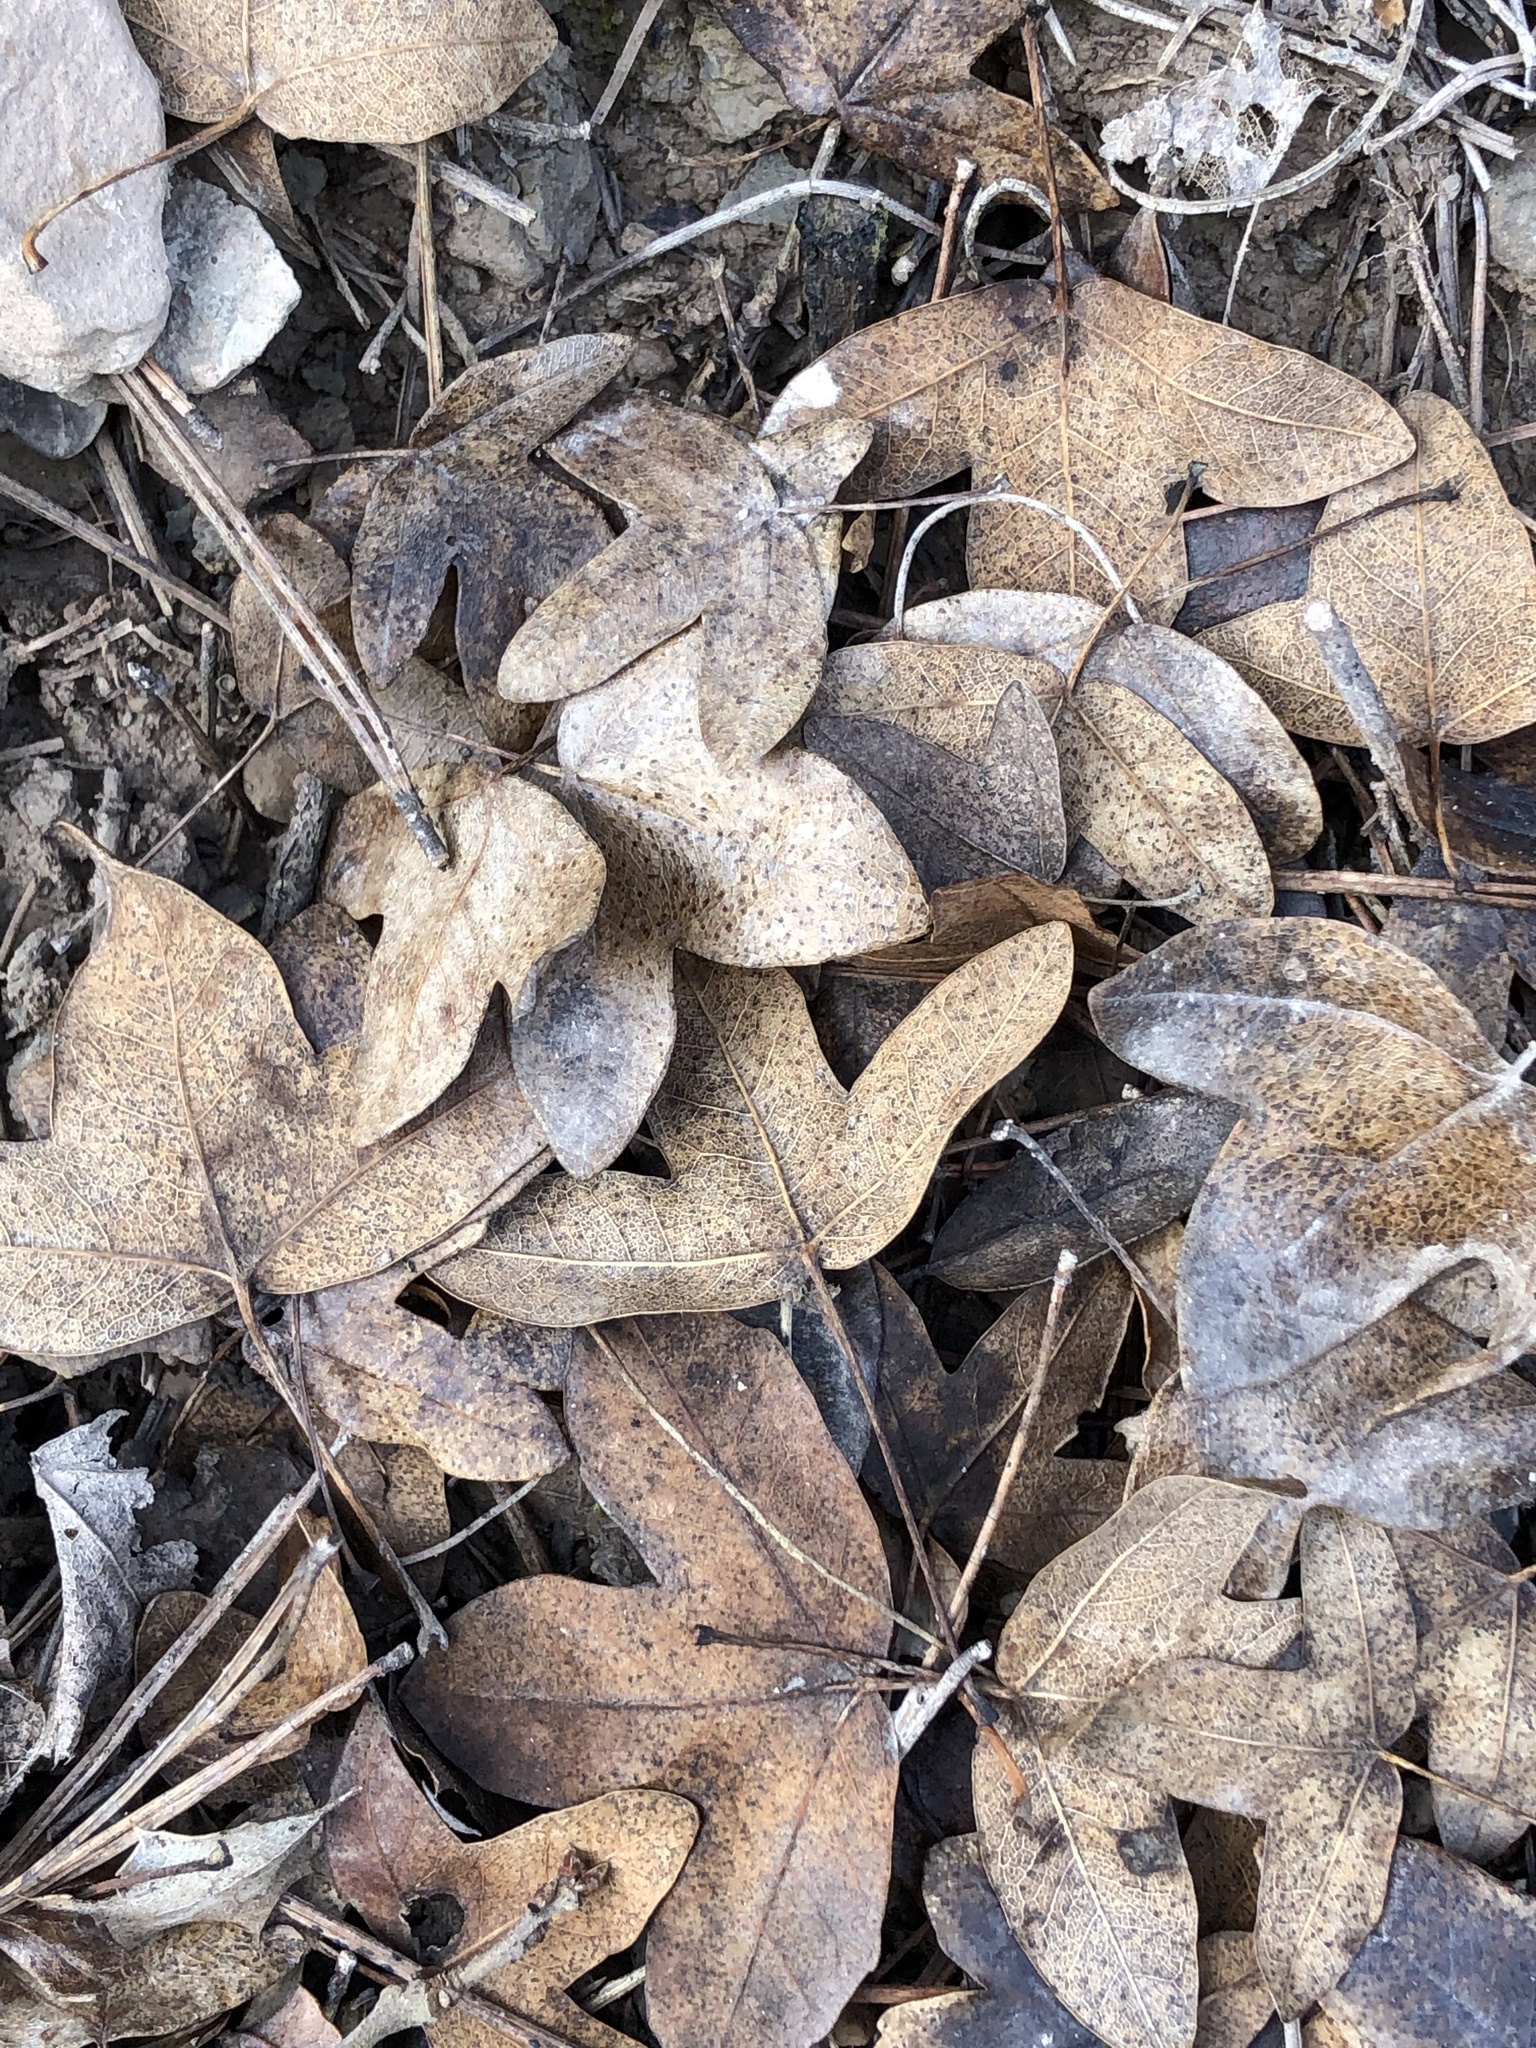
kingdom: Plantae
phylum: Tracheophyta
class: Magnoliopsida
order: Sapindales
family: Sapindaceae
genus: Acer
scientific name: Acer monspessulanum
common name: Montpellier maple
